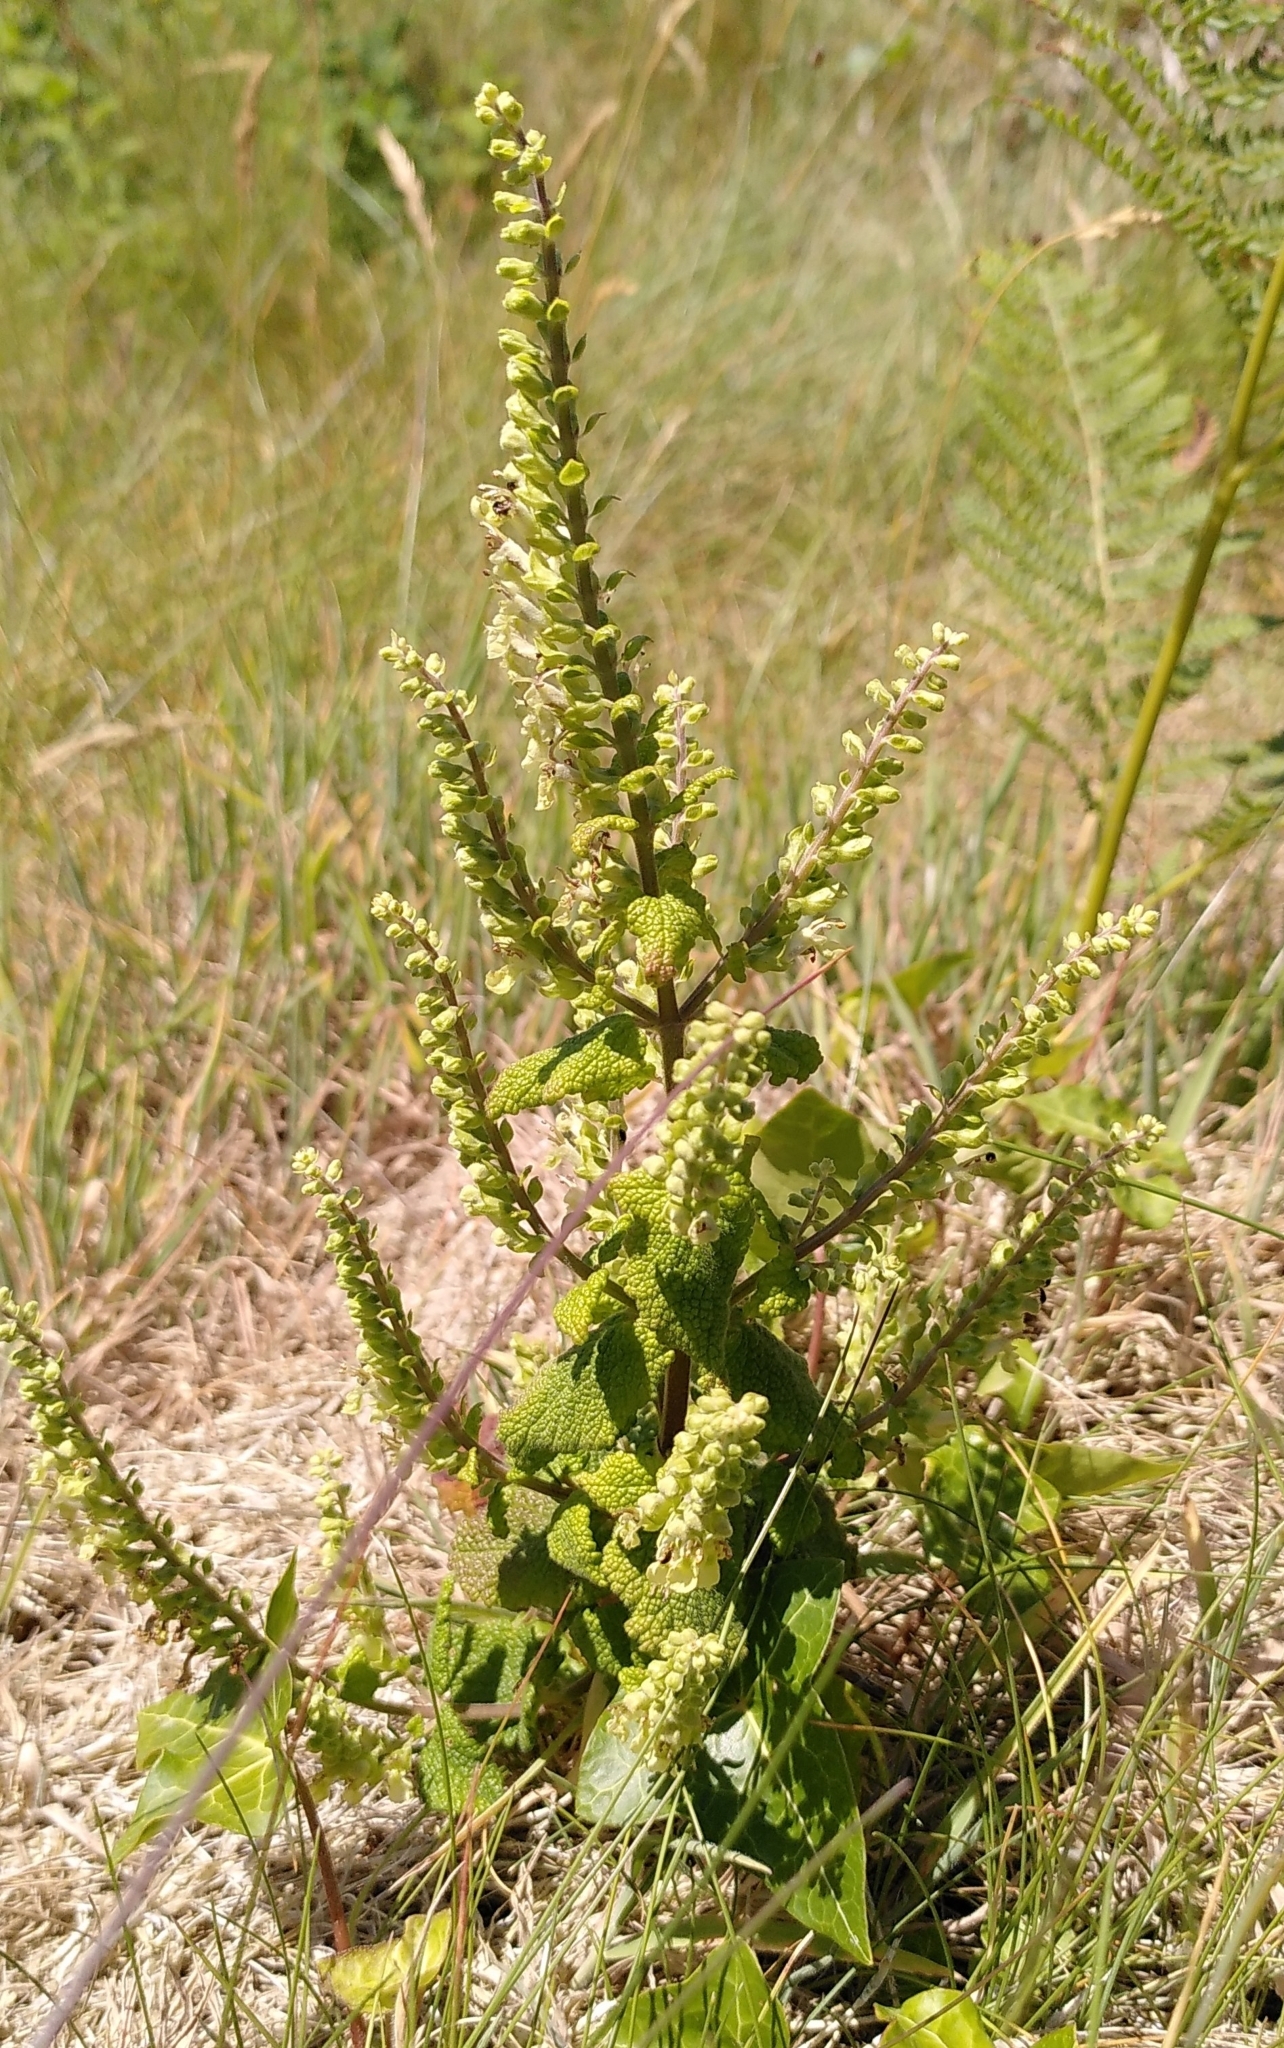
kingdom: Plantae
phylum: Tracheophyta
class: Magnoliopsida
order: Lamiales
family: Lamiaceae
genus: Teucrium
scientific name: Teucrium scorodonia
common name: Woodland germander
